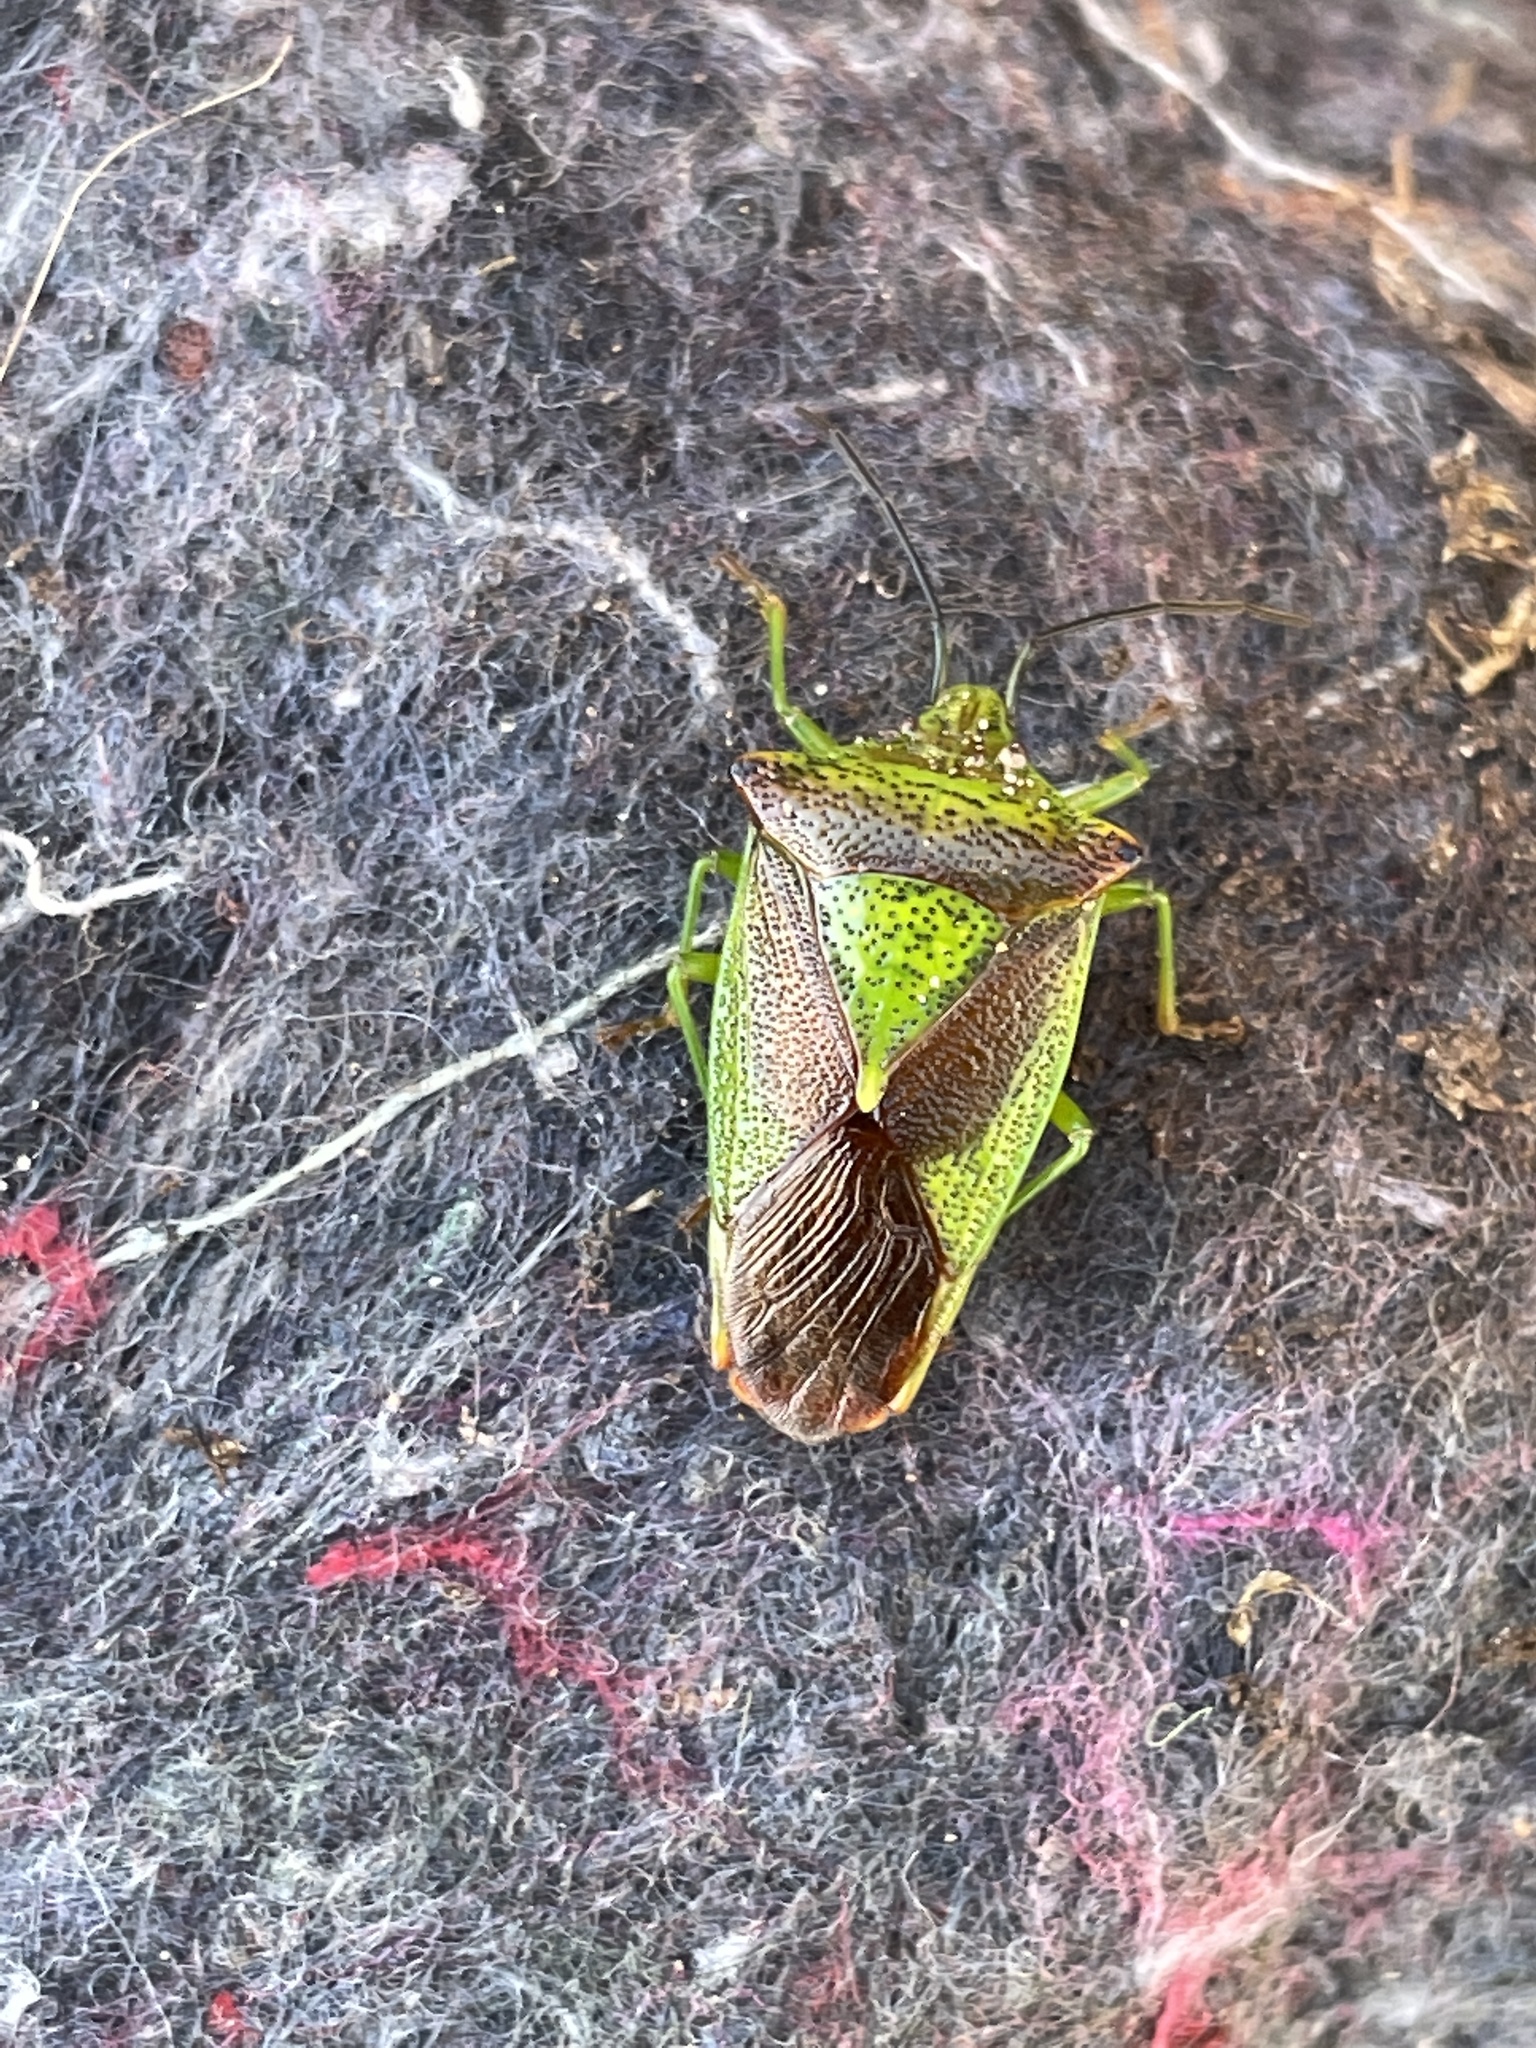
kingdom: Animalia
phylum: Arthropoda
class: Insecta
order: Hemiptera
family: Acanthosomatidae
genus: Acanthosoma
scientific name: Acanthosoma haemorrhoidale
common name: Hawthorn shieldbug
